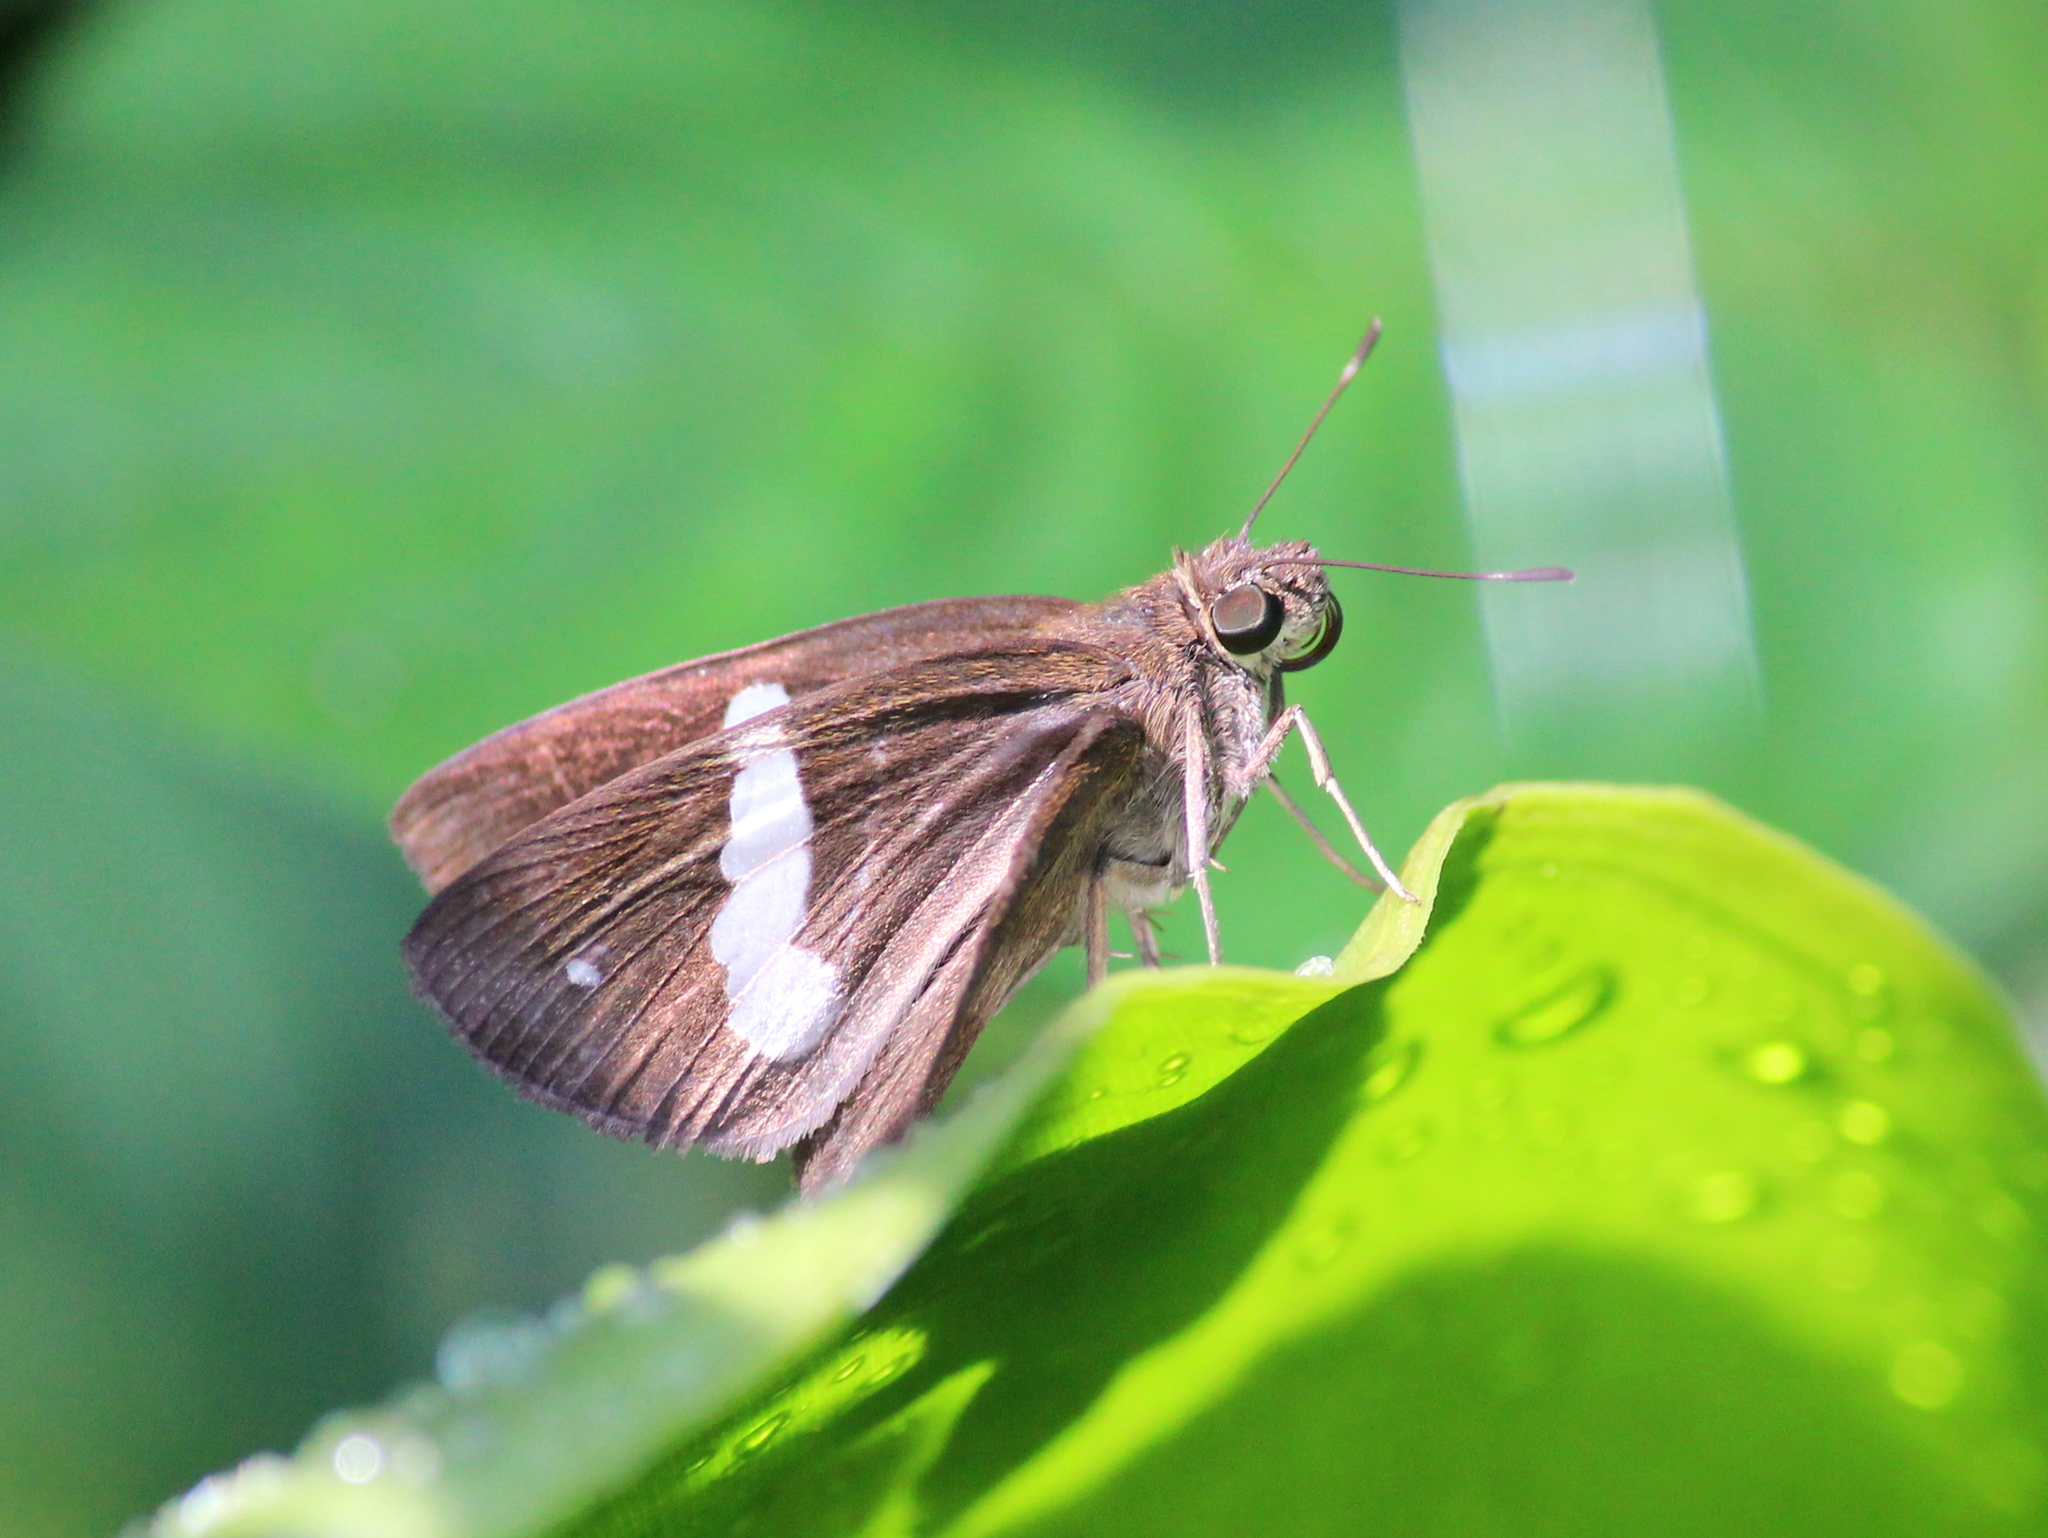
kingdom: Animalia
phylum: Arthropoda
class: Insecta
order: Lepidoptera
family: Hesperiidae
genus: Notocrypta
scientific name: Notocrypta paralysos
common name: Common banded demon
